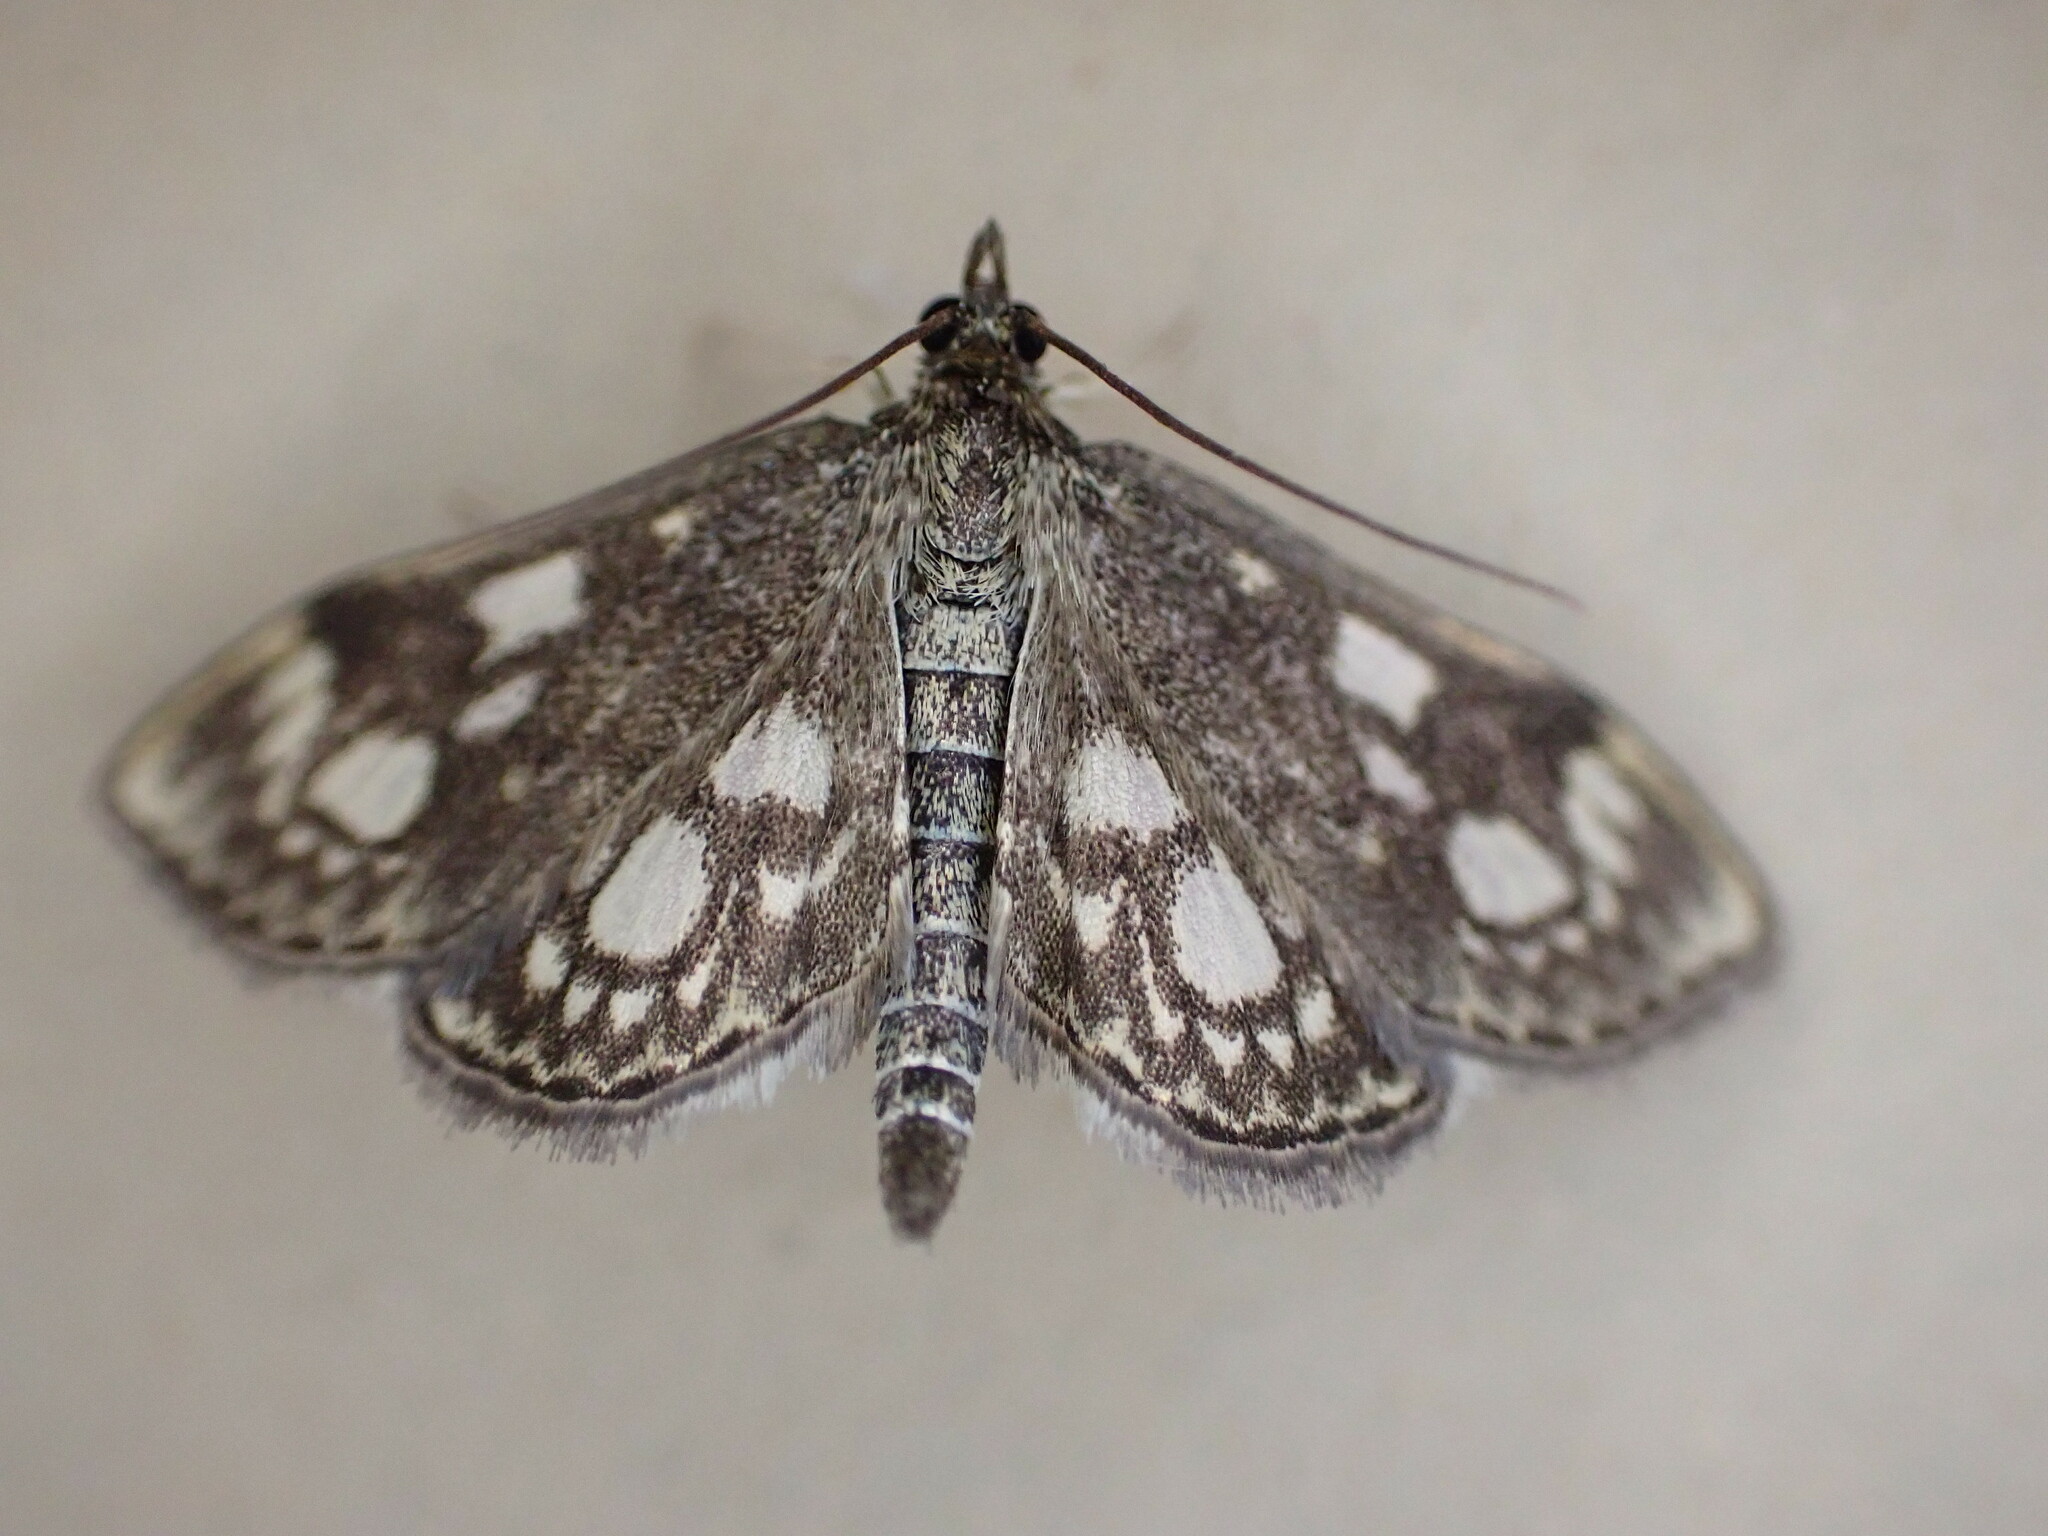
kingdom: Animalia
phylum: Arthropoda
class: Insecta
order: Lepidoptera
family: Crambidae
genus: Anania
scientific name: Anania coronata
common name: Elder pearl
